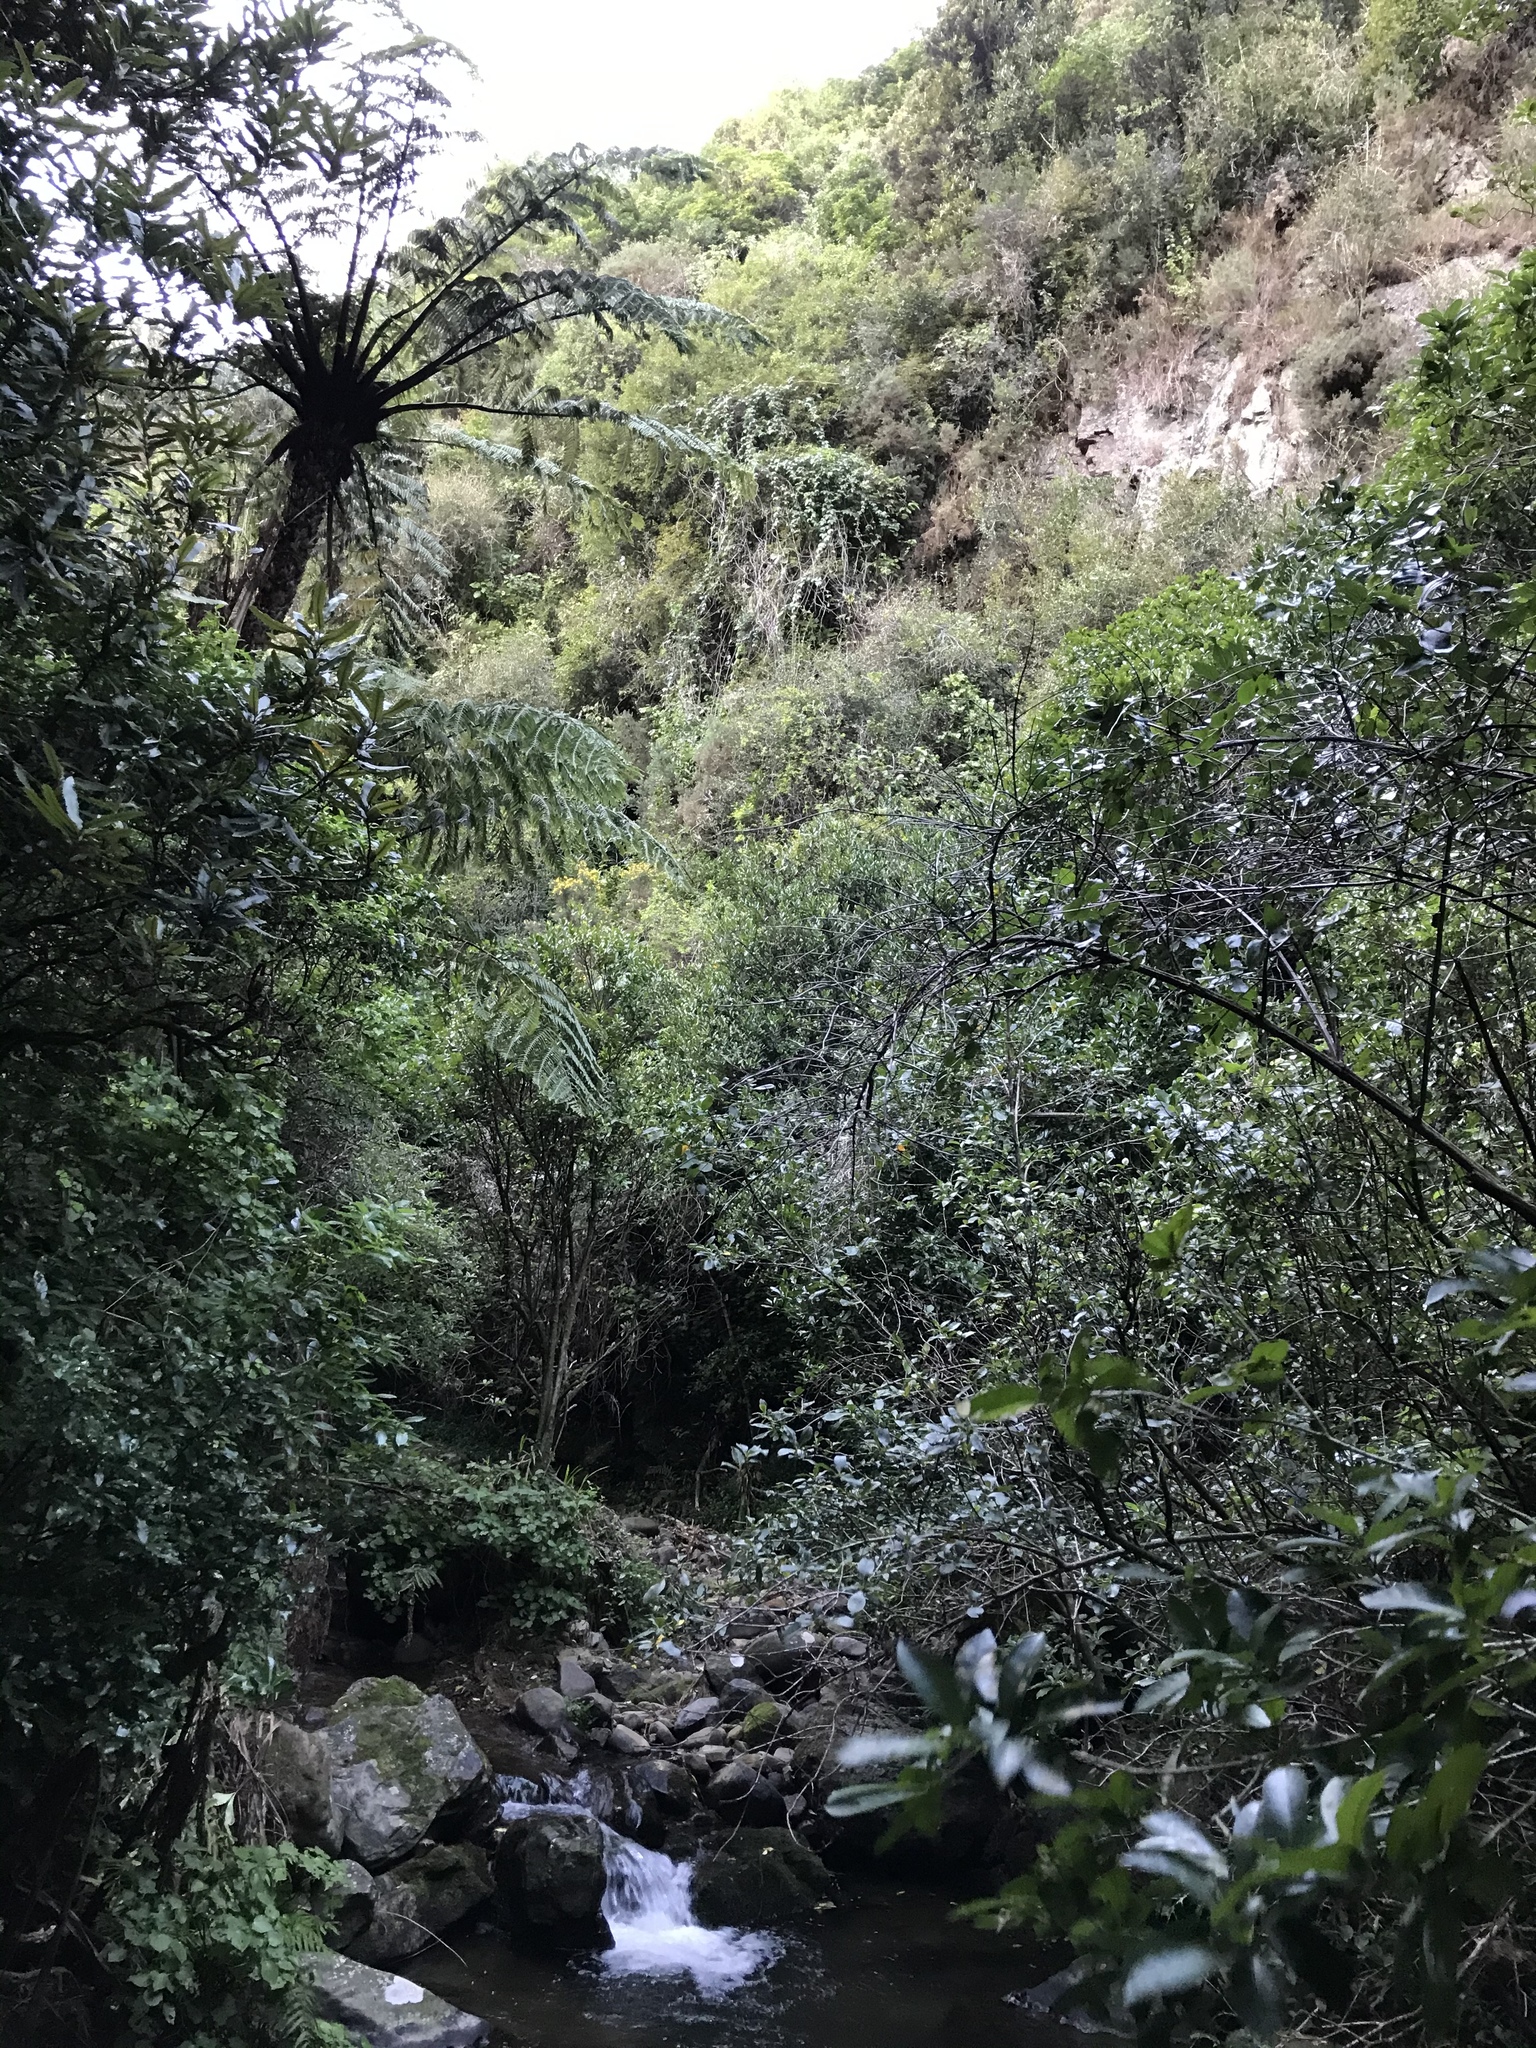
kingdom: Plantae
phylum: Tracheophyta
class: Magnoliopsida
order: Malpighiales
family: Passifloraceae
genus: Passiflora
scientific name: Passiflora tripartita
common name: Banana poka
